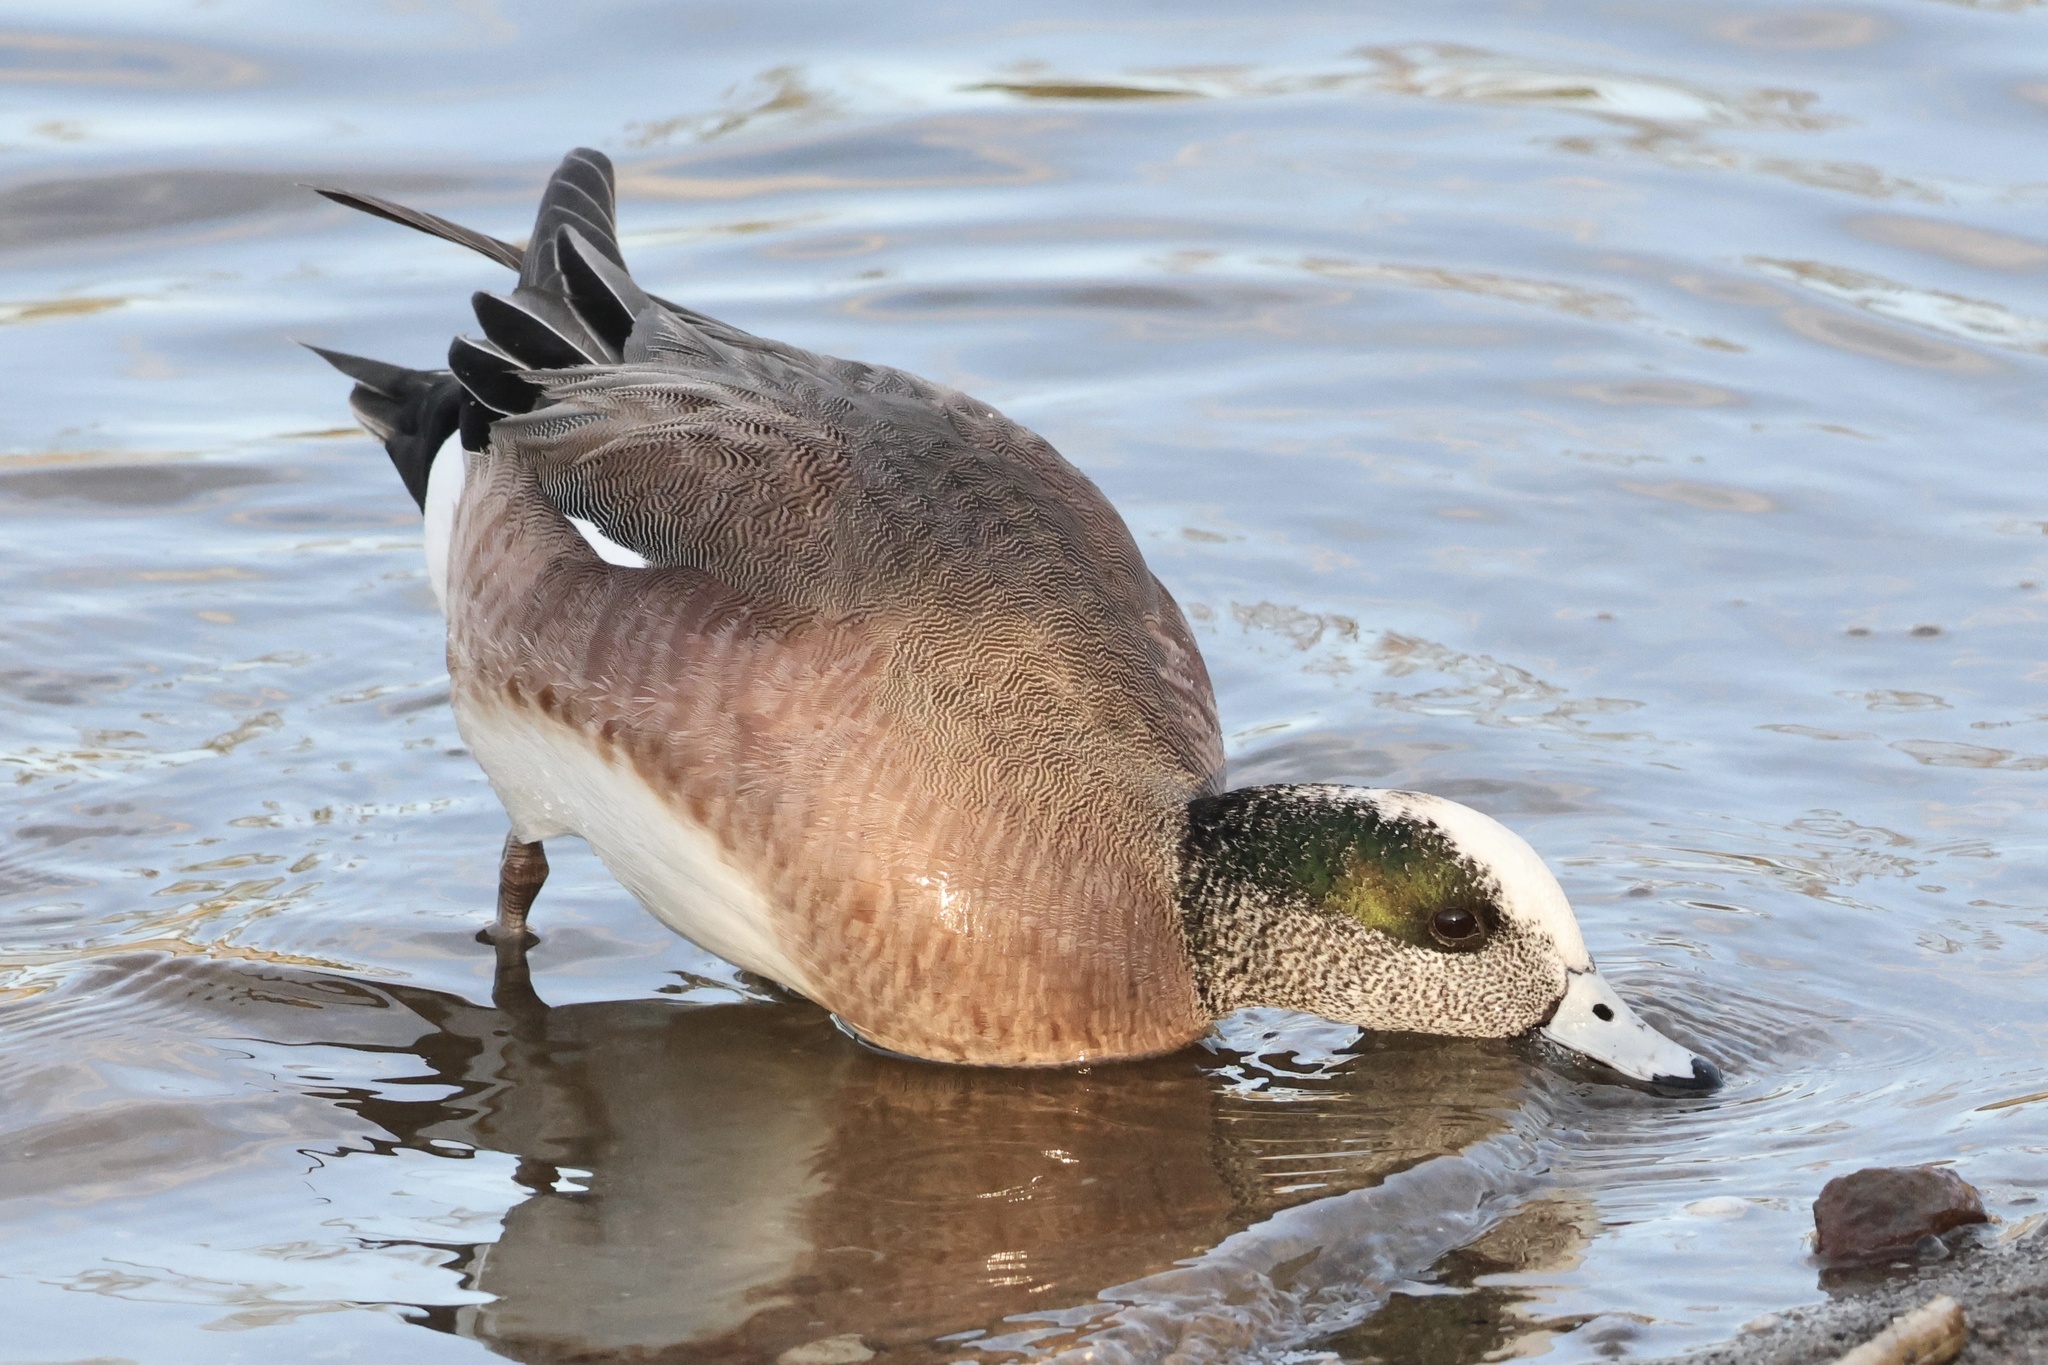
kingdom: Animalia
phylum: Chordata
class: Aves
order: Anseriformes
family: Anatidae
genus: Mareca
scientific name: Mareca americana
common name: American wigeon
